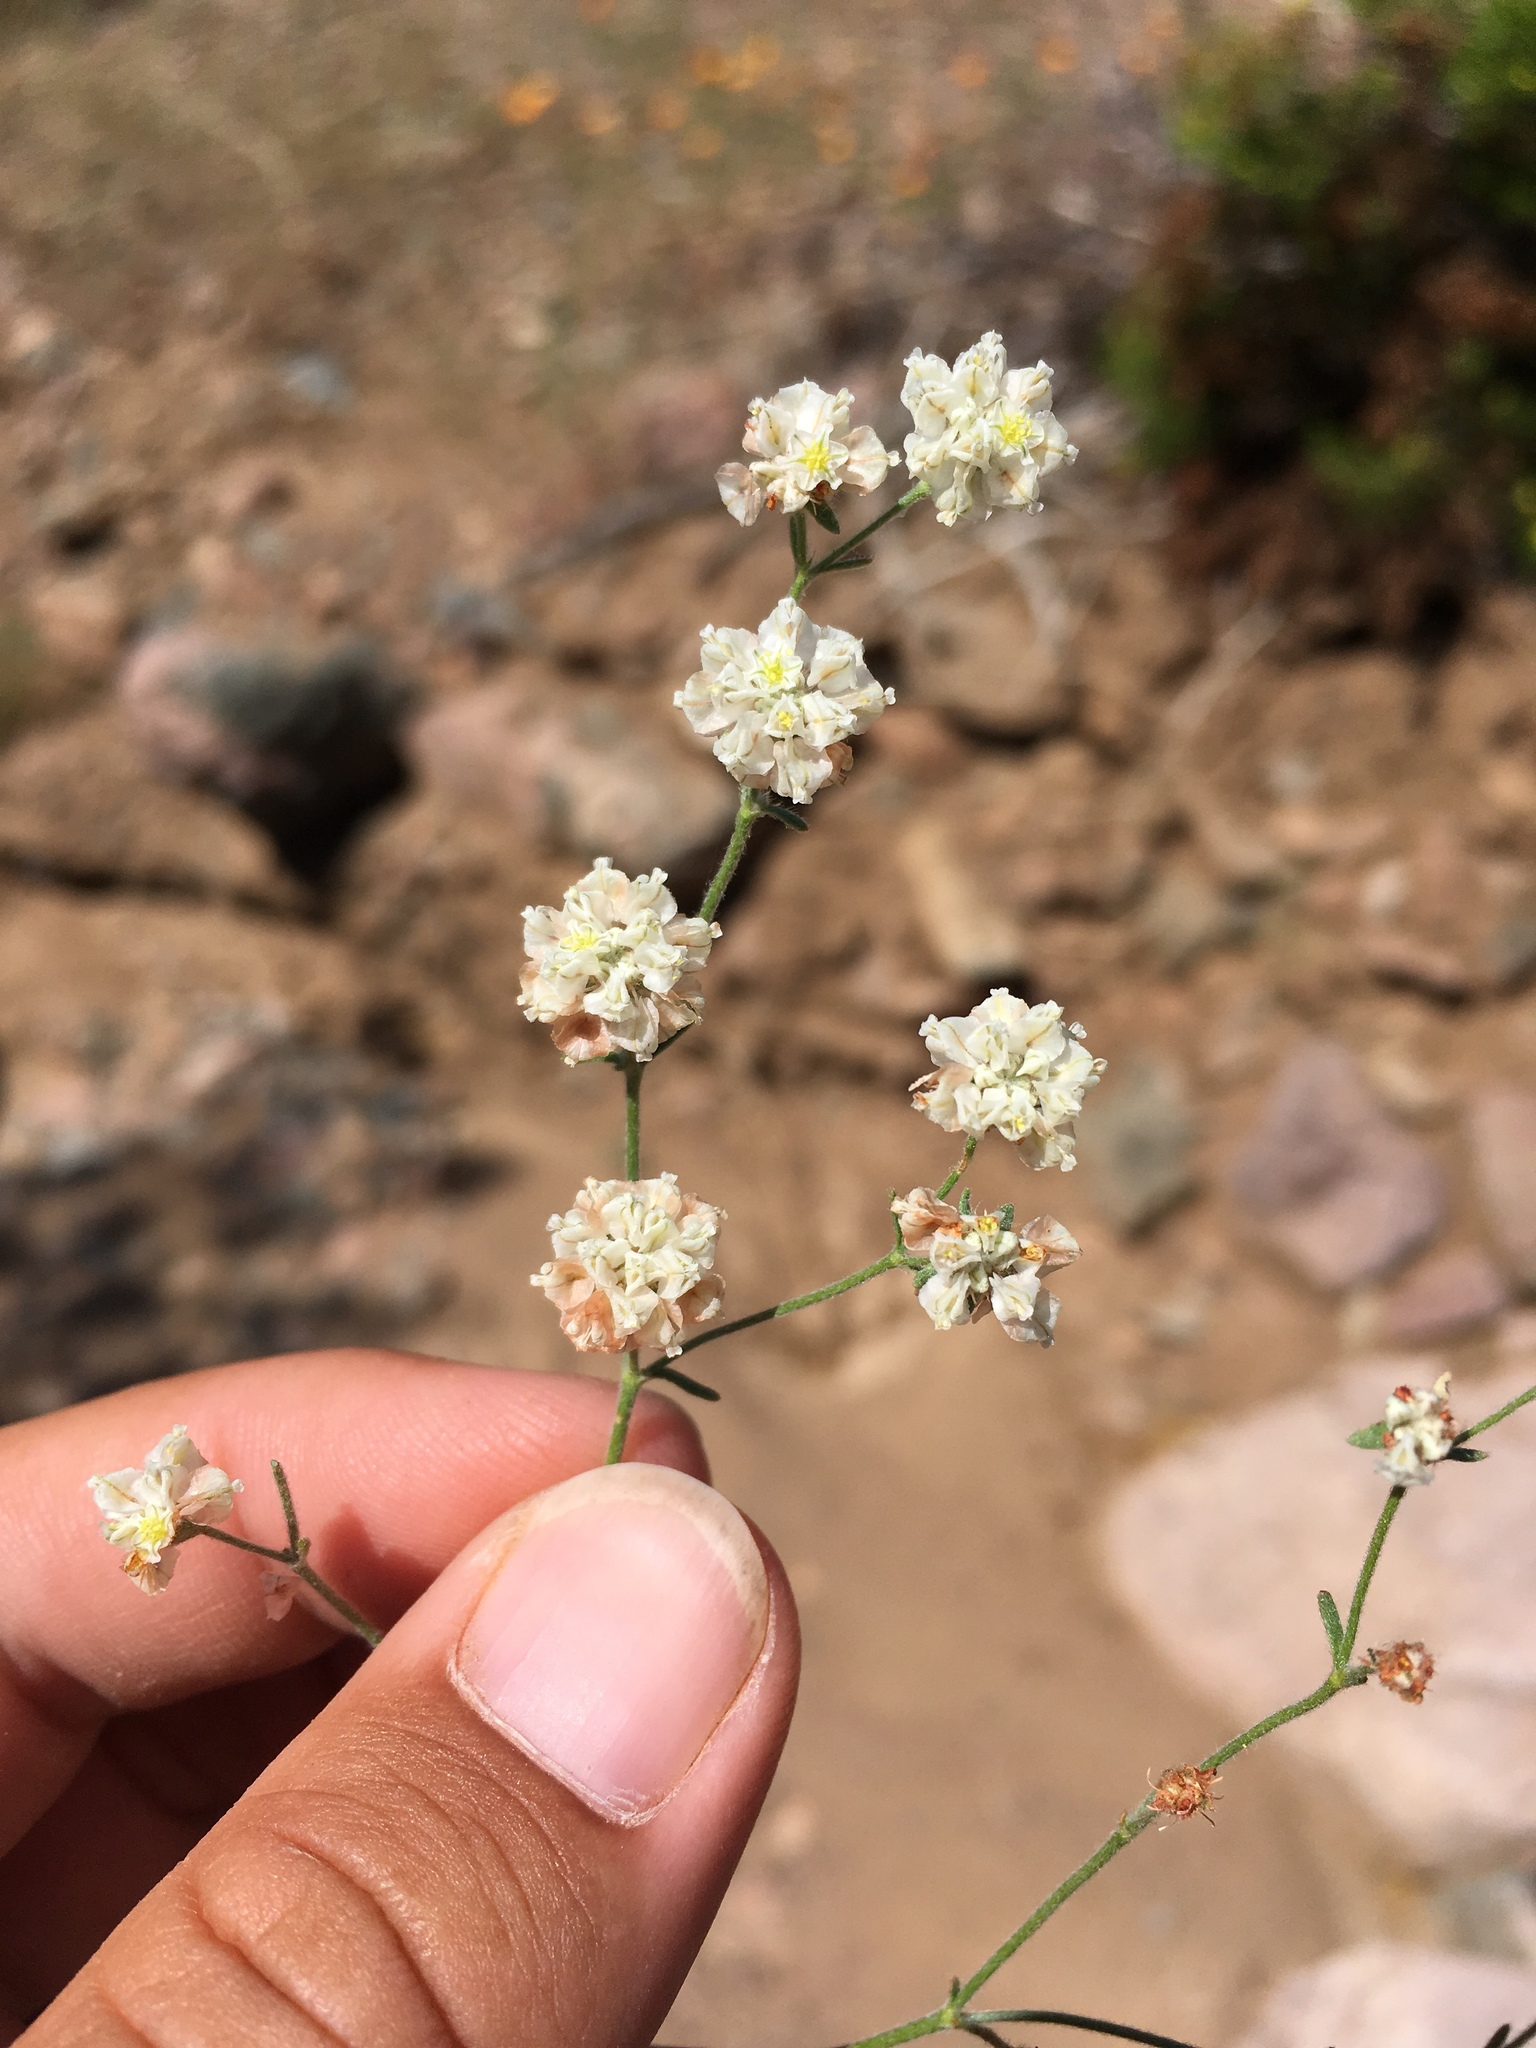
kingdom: Plantae
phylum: Tracheophyta
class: Magnoliopsida
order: Caryophyllales
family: Polygonaceae
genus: Eriogonum
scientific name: Eriogonum abertianum
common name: Abert's wild buckwheat
